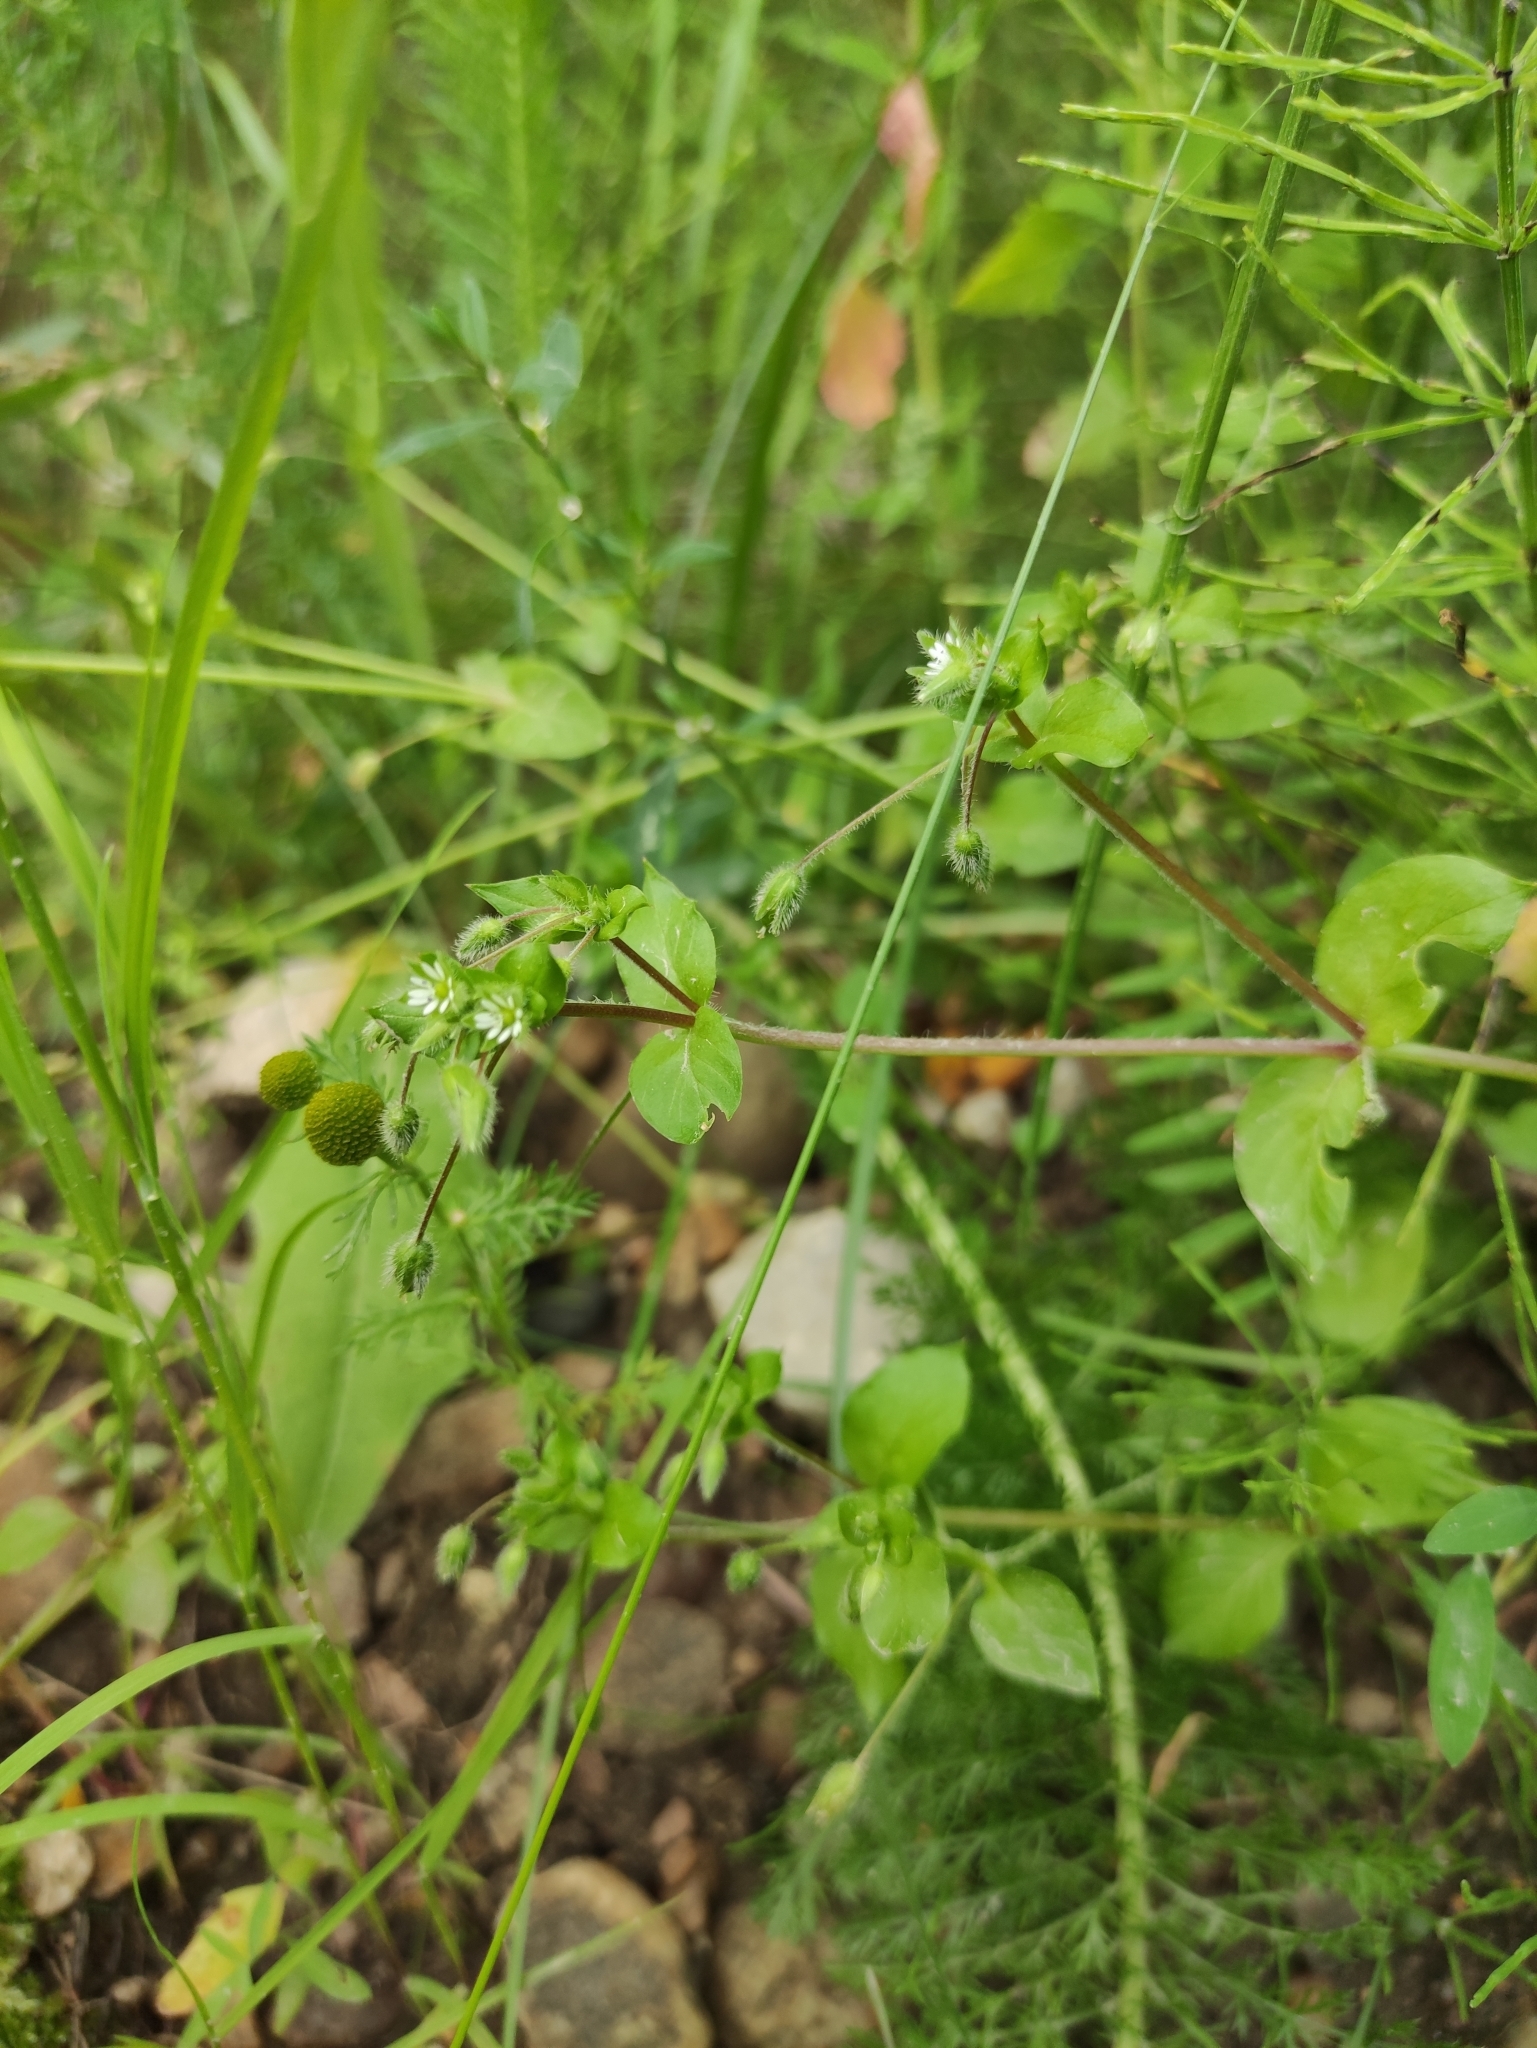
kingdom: Plantae
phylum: Tracheophyta
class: Magnoliopsida
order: Caryophyllales
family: Caryophyllaceae
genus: Stellaria
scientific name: Stellaria media
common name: Common chickweed
